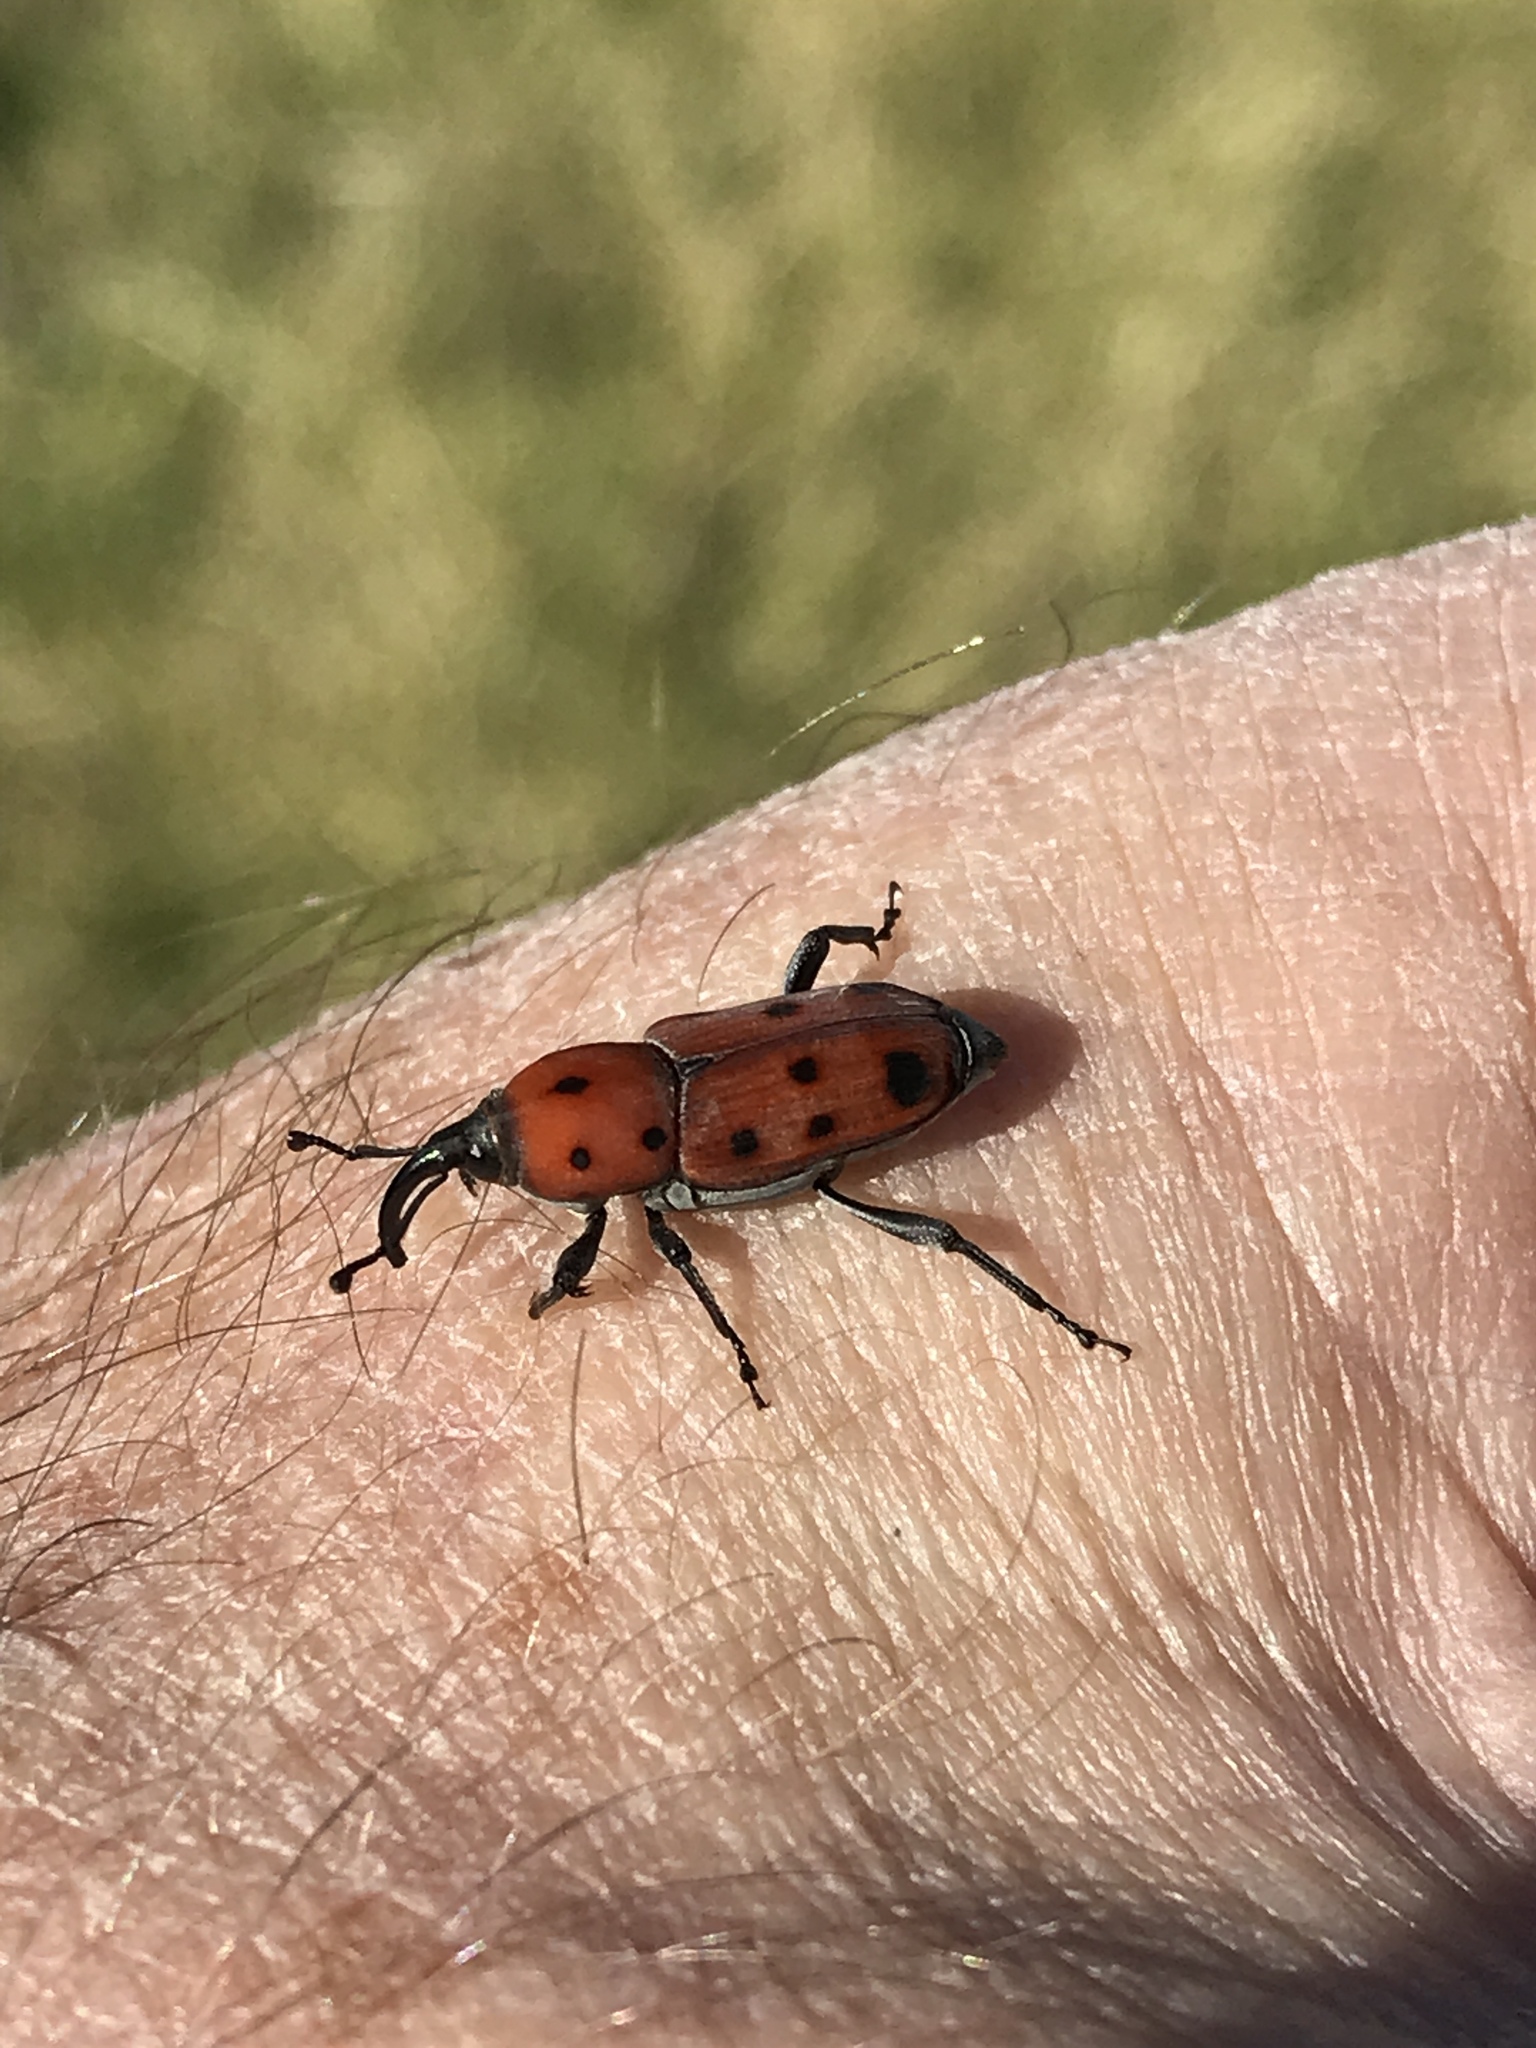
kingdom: Animalia
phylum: Arthropoda
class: Insecta
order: Coleoptera
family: Dryophthoridae
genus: Rhodobaenus
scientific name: Rhodobaenus tredecimpunctatus
